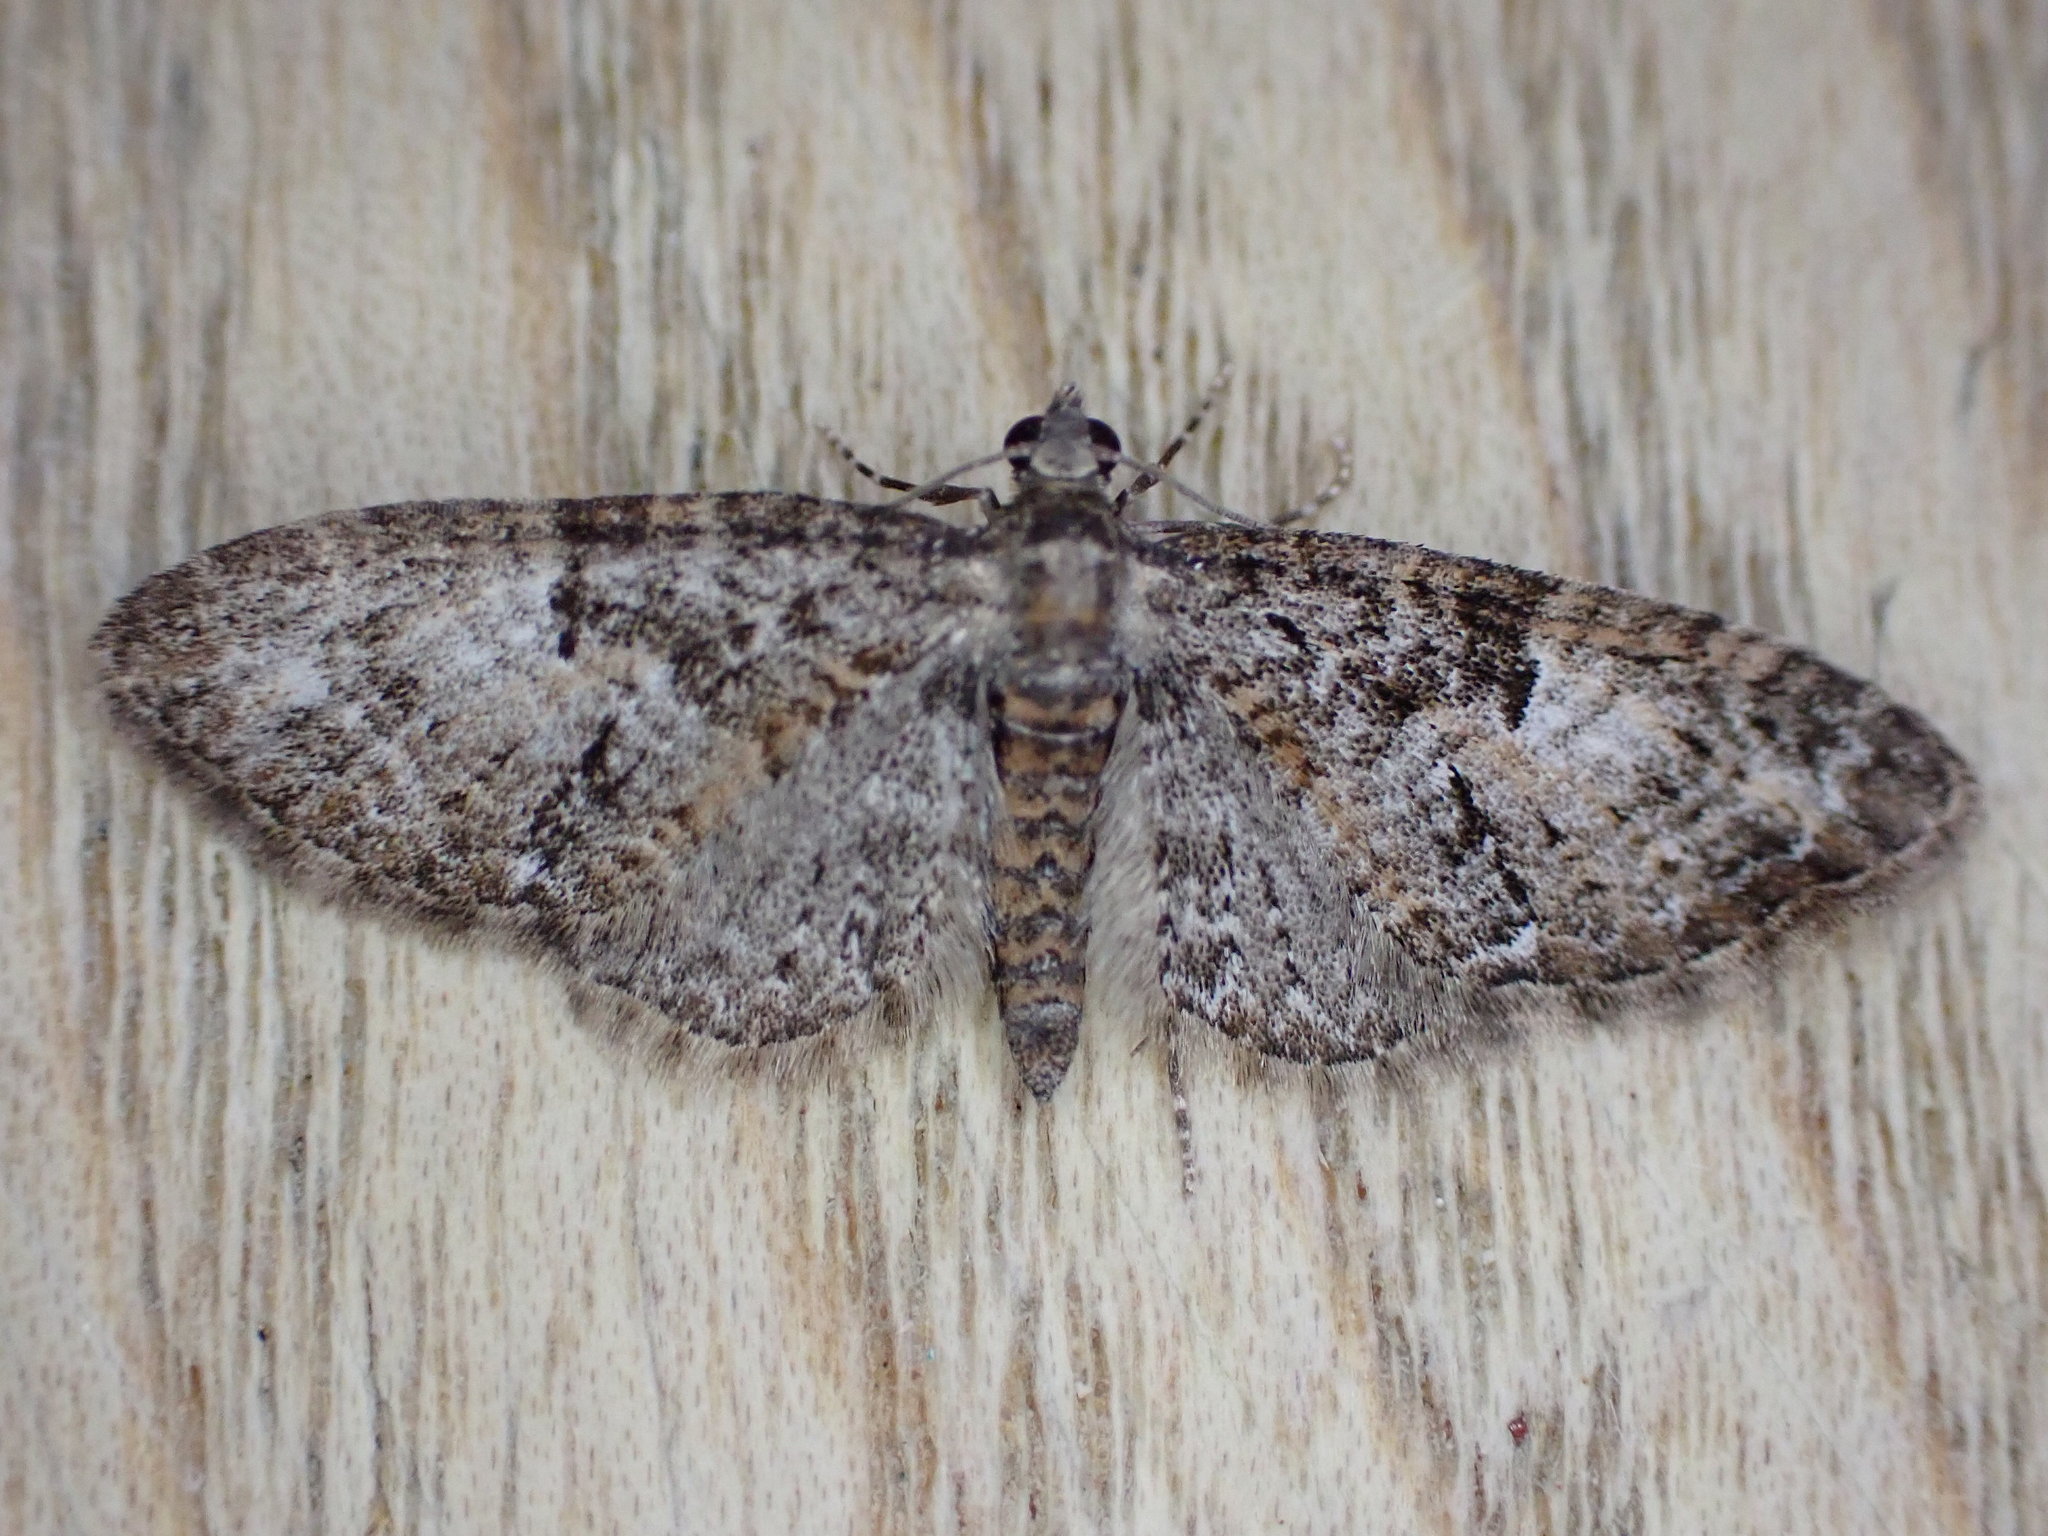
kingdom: Animalia
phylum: Arthropoda
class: Insecta
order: Lepidoptera
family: Geometridae
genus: Eupithecia
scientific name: Eupithecia abbreviata
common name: Brindled pug
